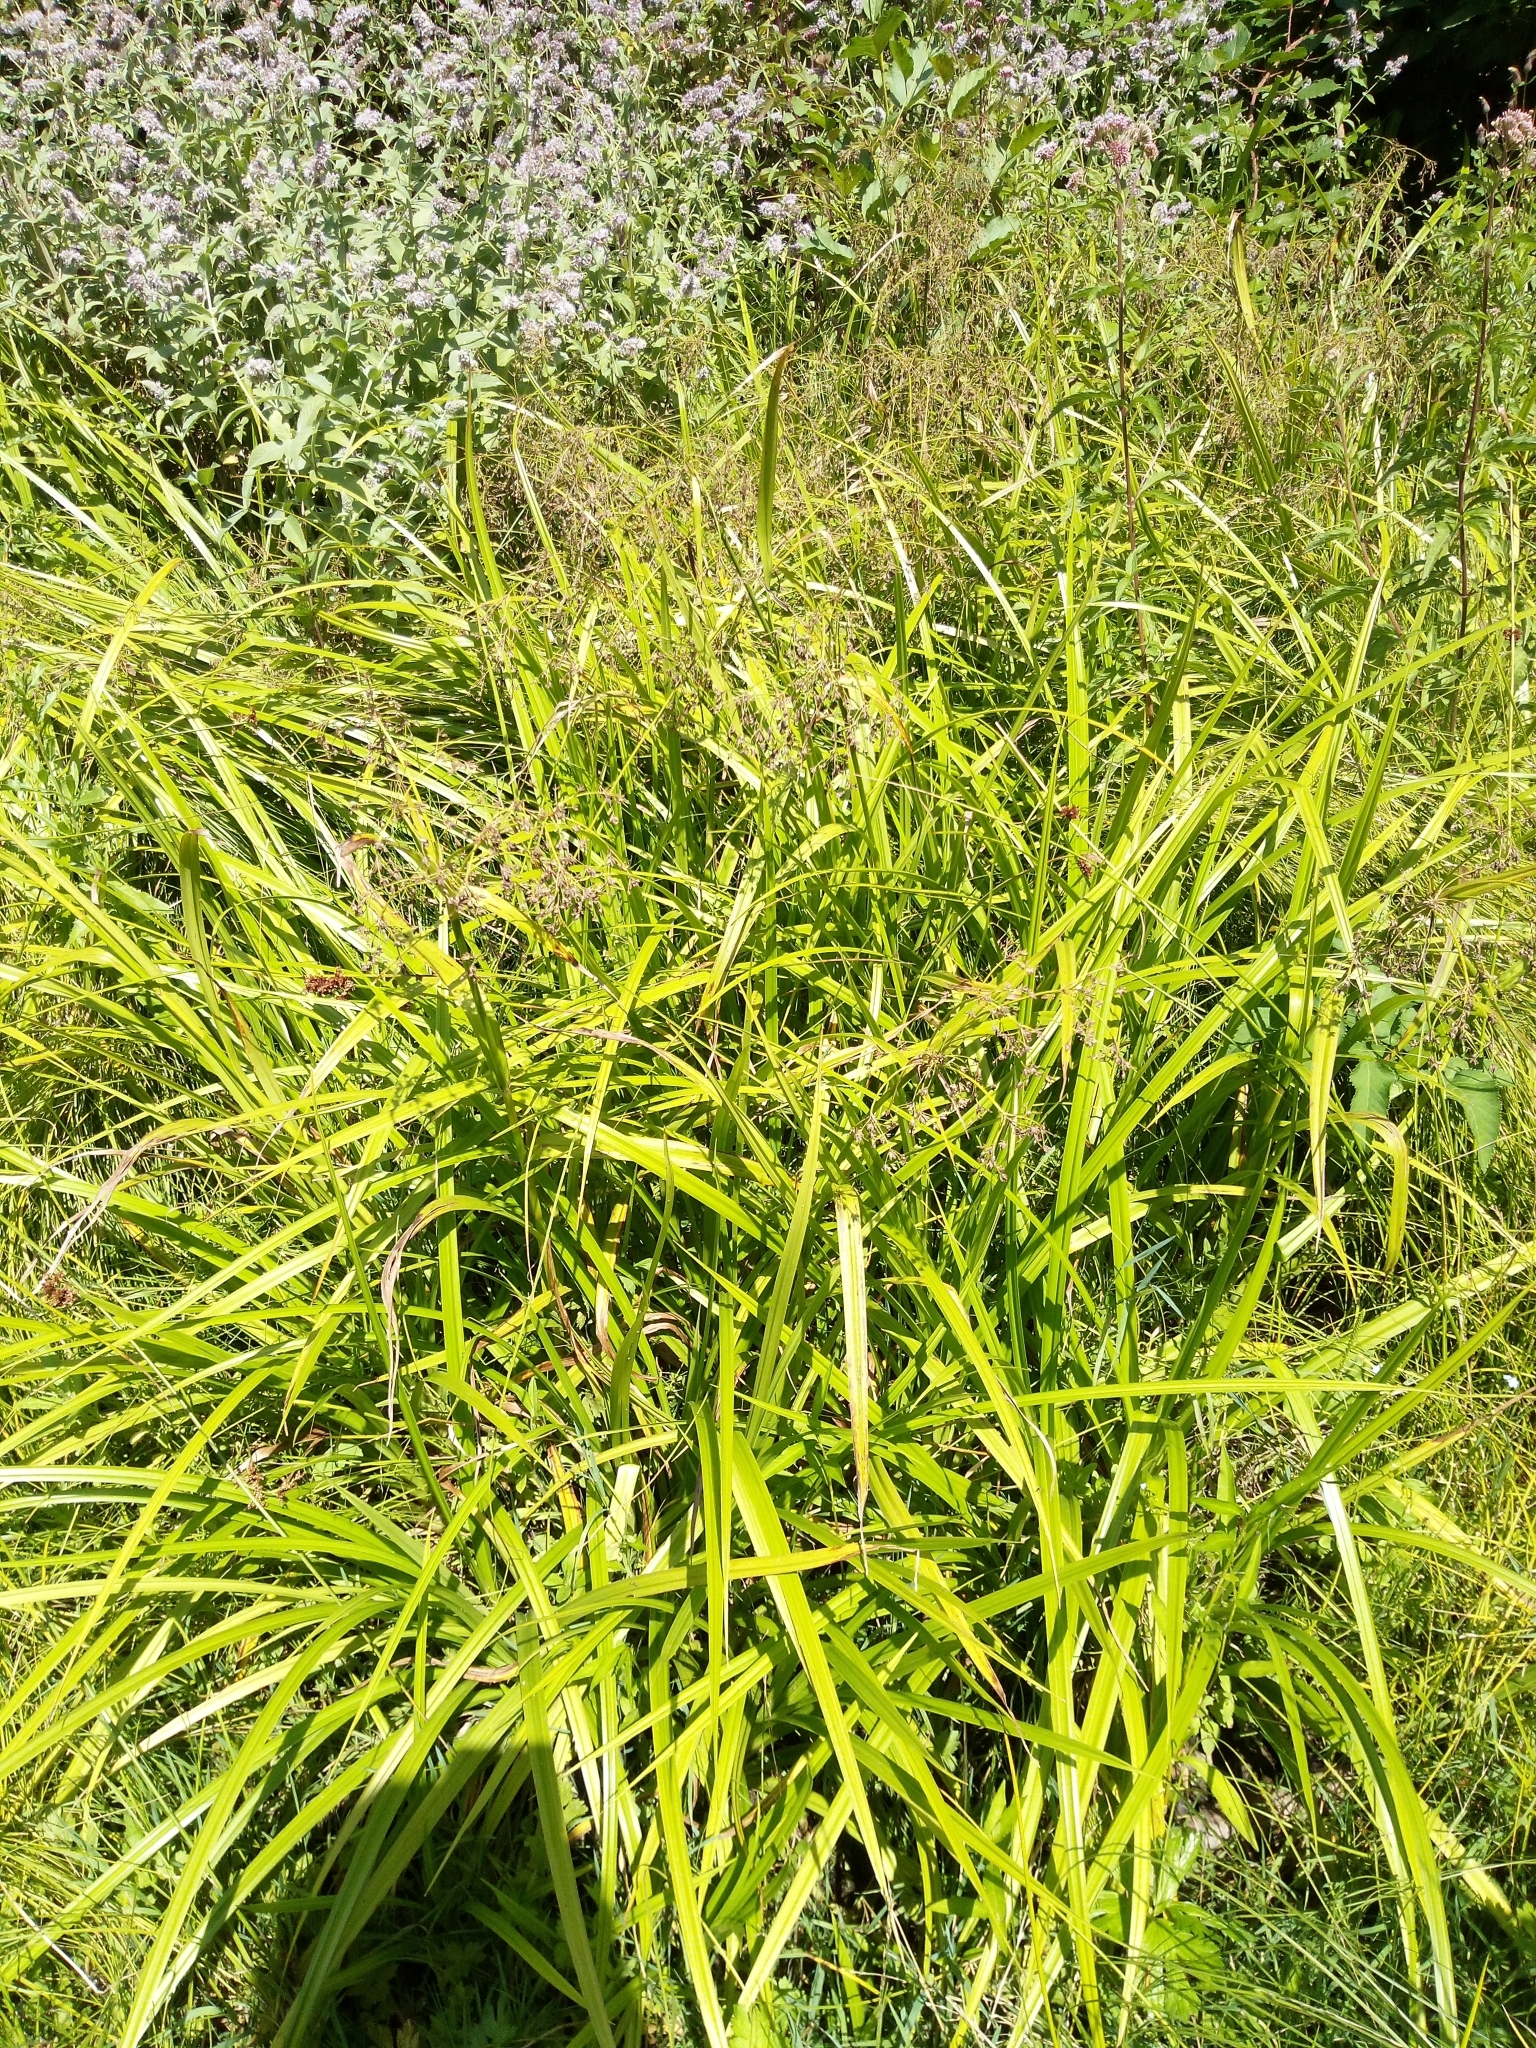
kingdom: Plantae
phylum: Tracheophyta
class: Liliopsida
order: Poales
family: Cyperaceae
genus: Scirpus
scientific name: Scirpus sylvaticus
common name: Wood club-rush
